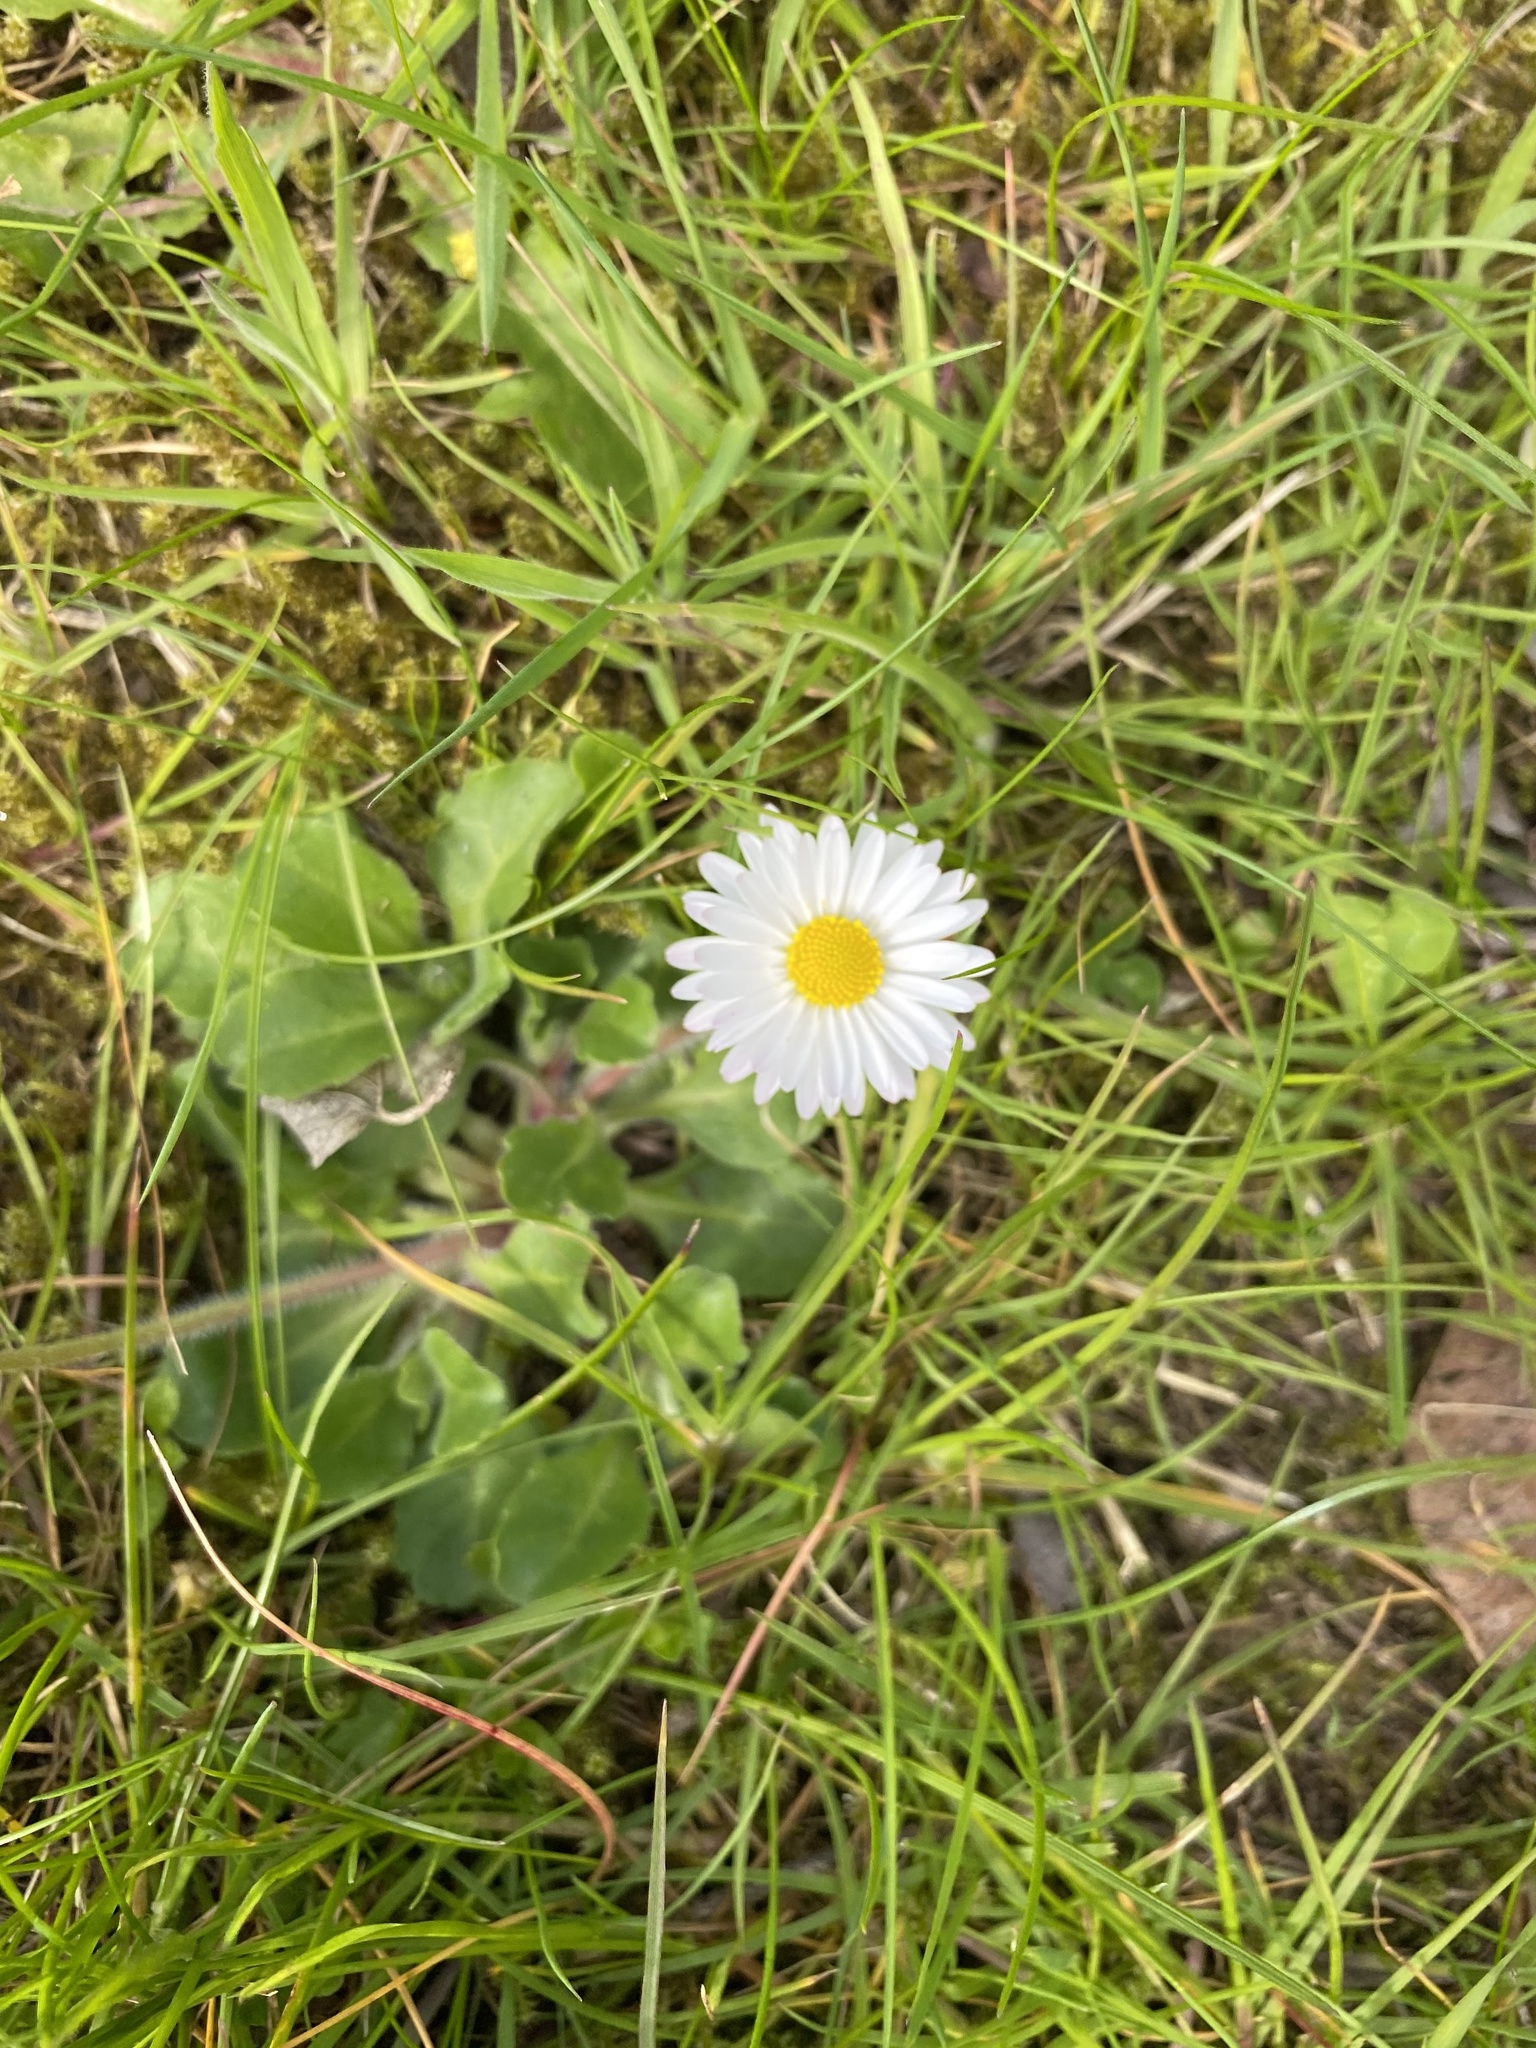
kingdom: Plantae
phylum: Tracheophyta
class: Magnoliopsida
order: Asterales
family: Asteraceae
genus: Bellis
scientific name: Bellis perennis
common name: Lawndaisy
